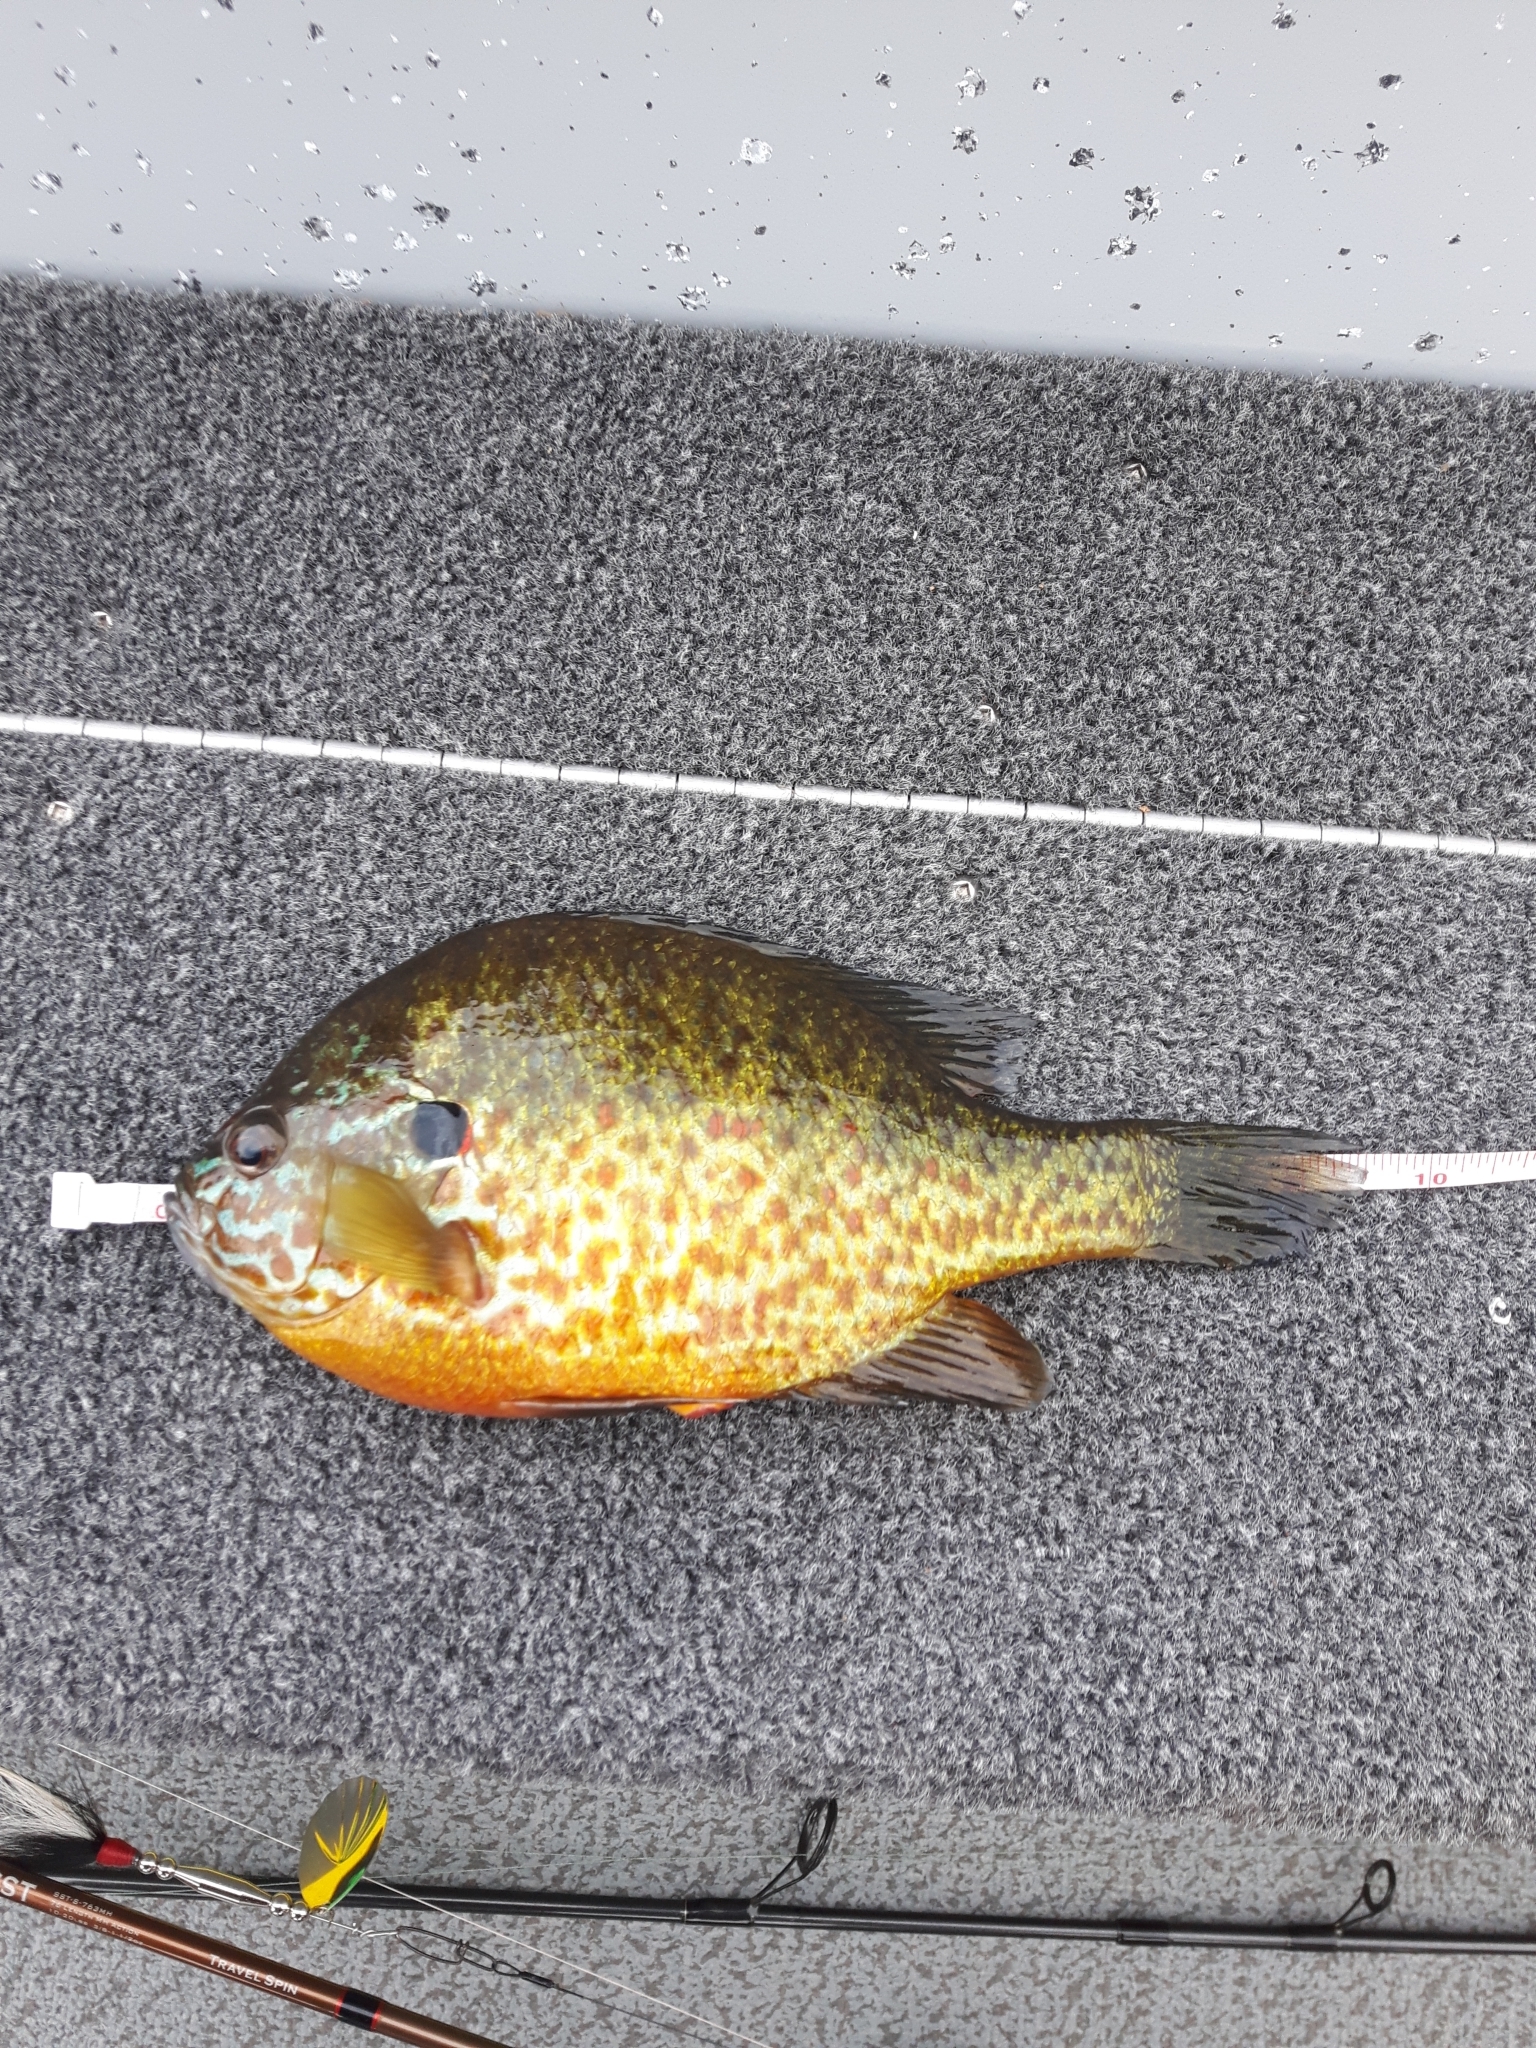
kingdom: Animalia
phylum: Chordata
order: Perciformes
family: Centrarchidae
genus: Lepomis
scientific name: Lepomis gibbosus
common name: Pumpkinseed
